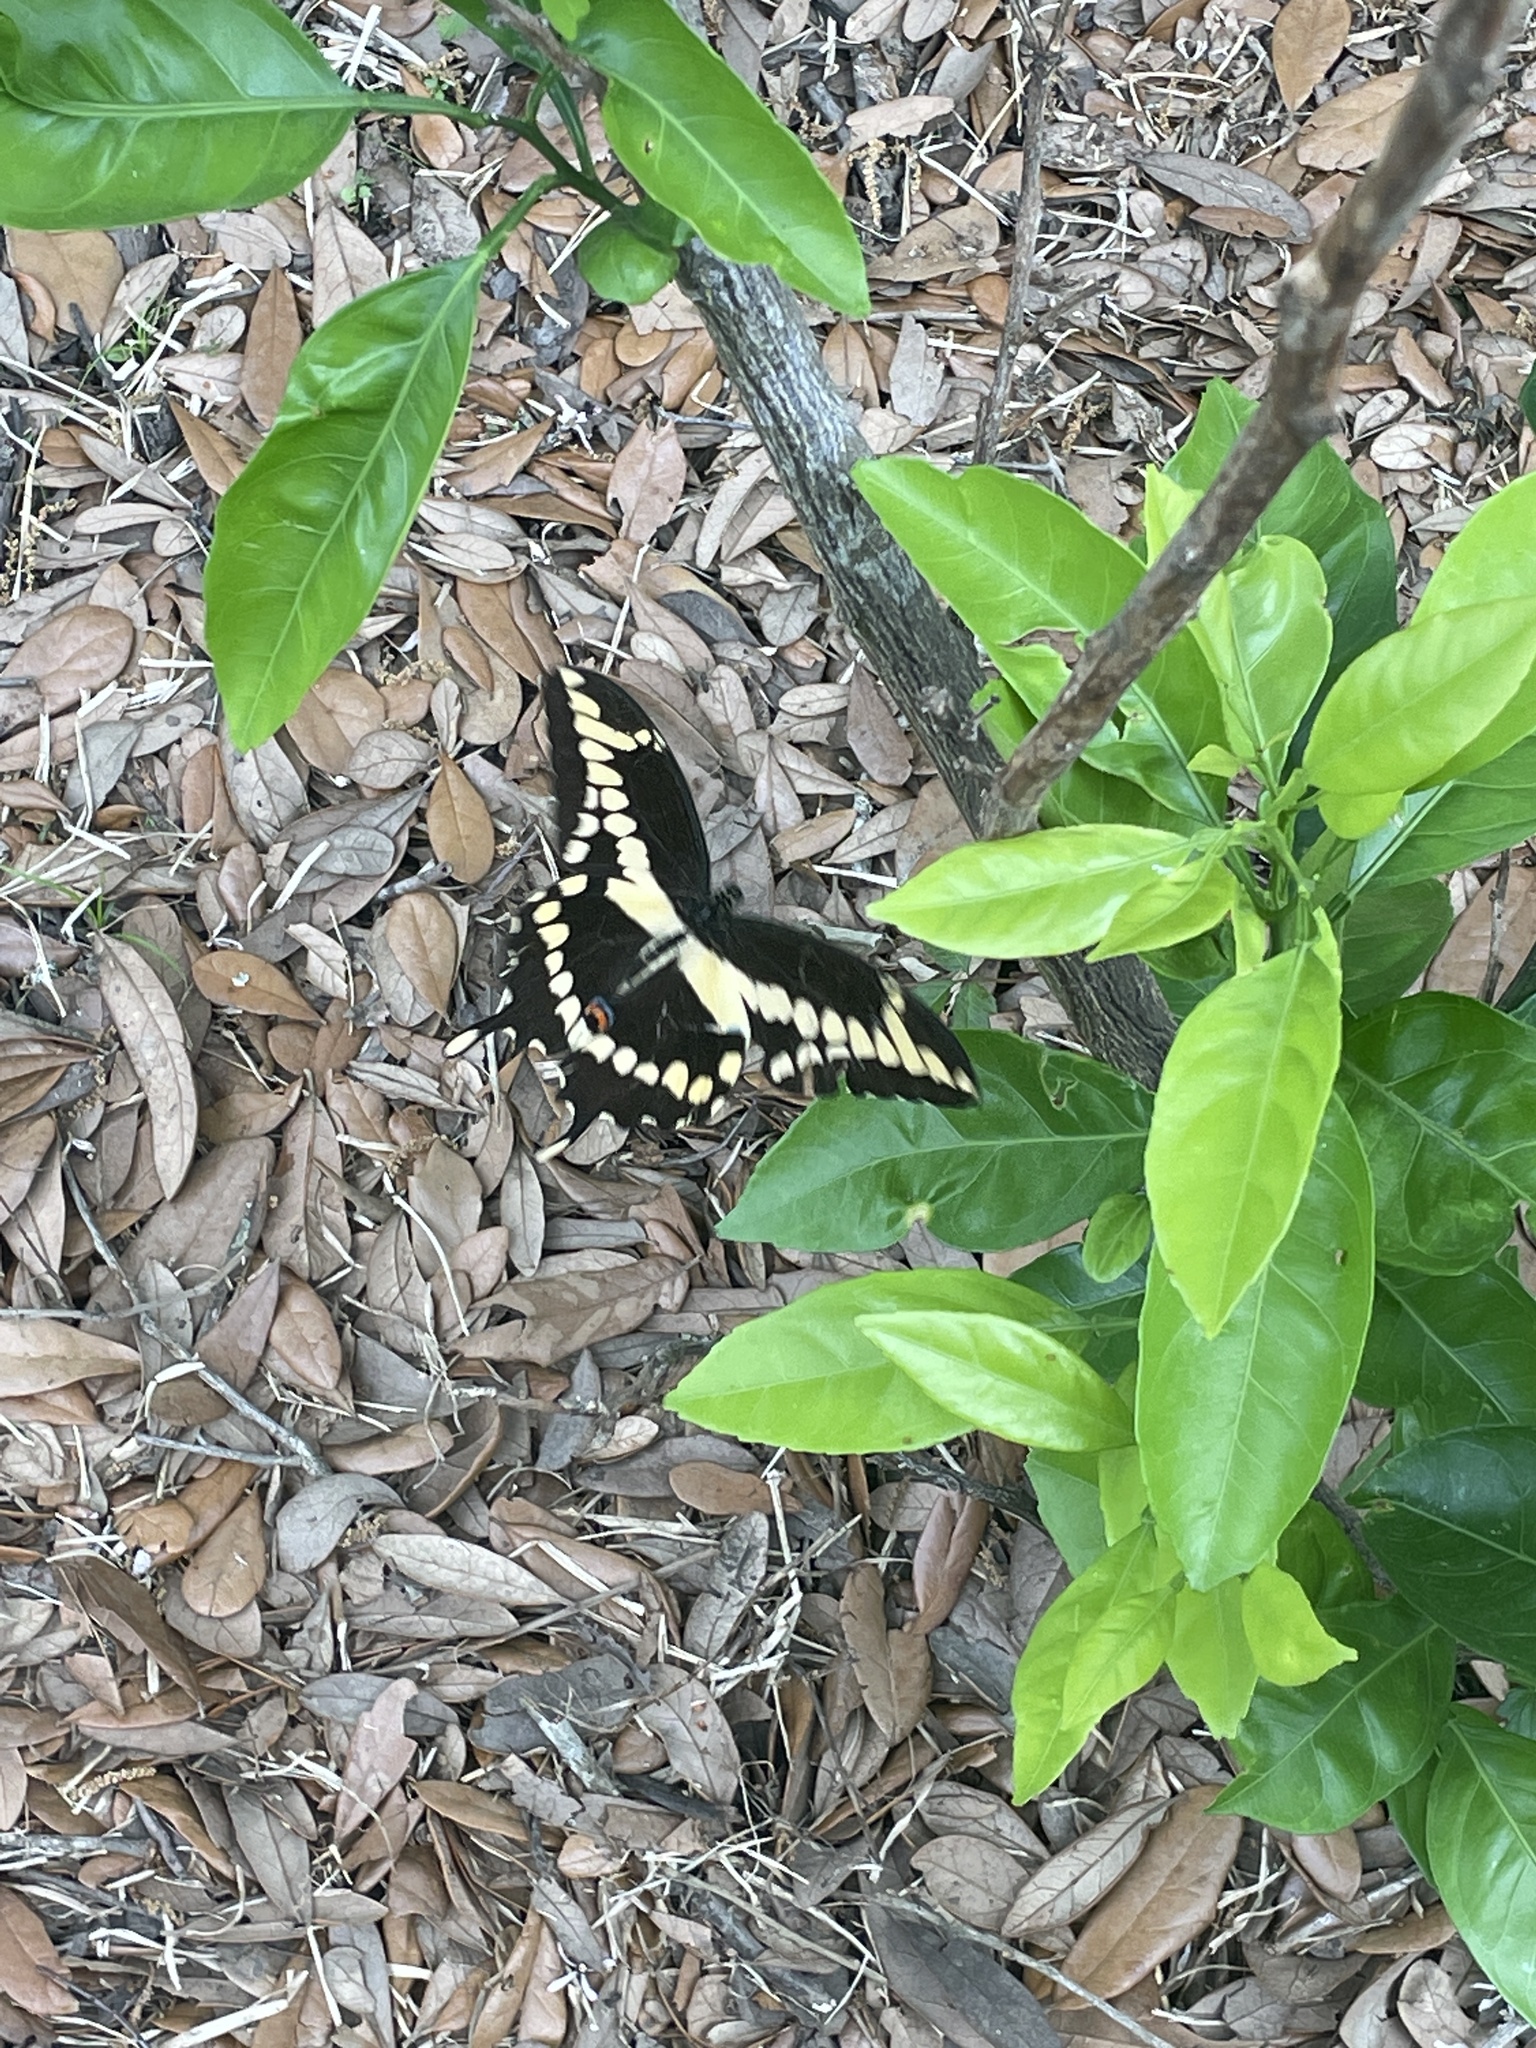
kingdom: Animalia
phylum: Arthropoda
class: Insecta
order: Lepidoptera
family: Papilionidae
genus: Papilio
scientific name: Papilio cresphontes
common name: Giant swallowtail
